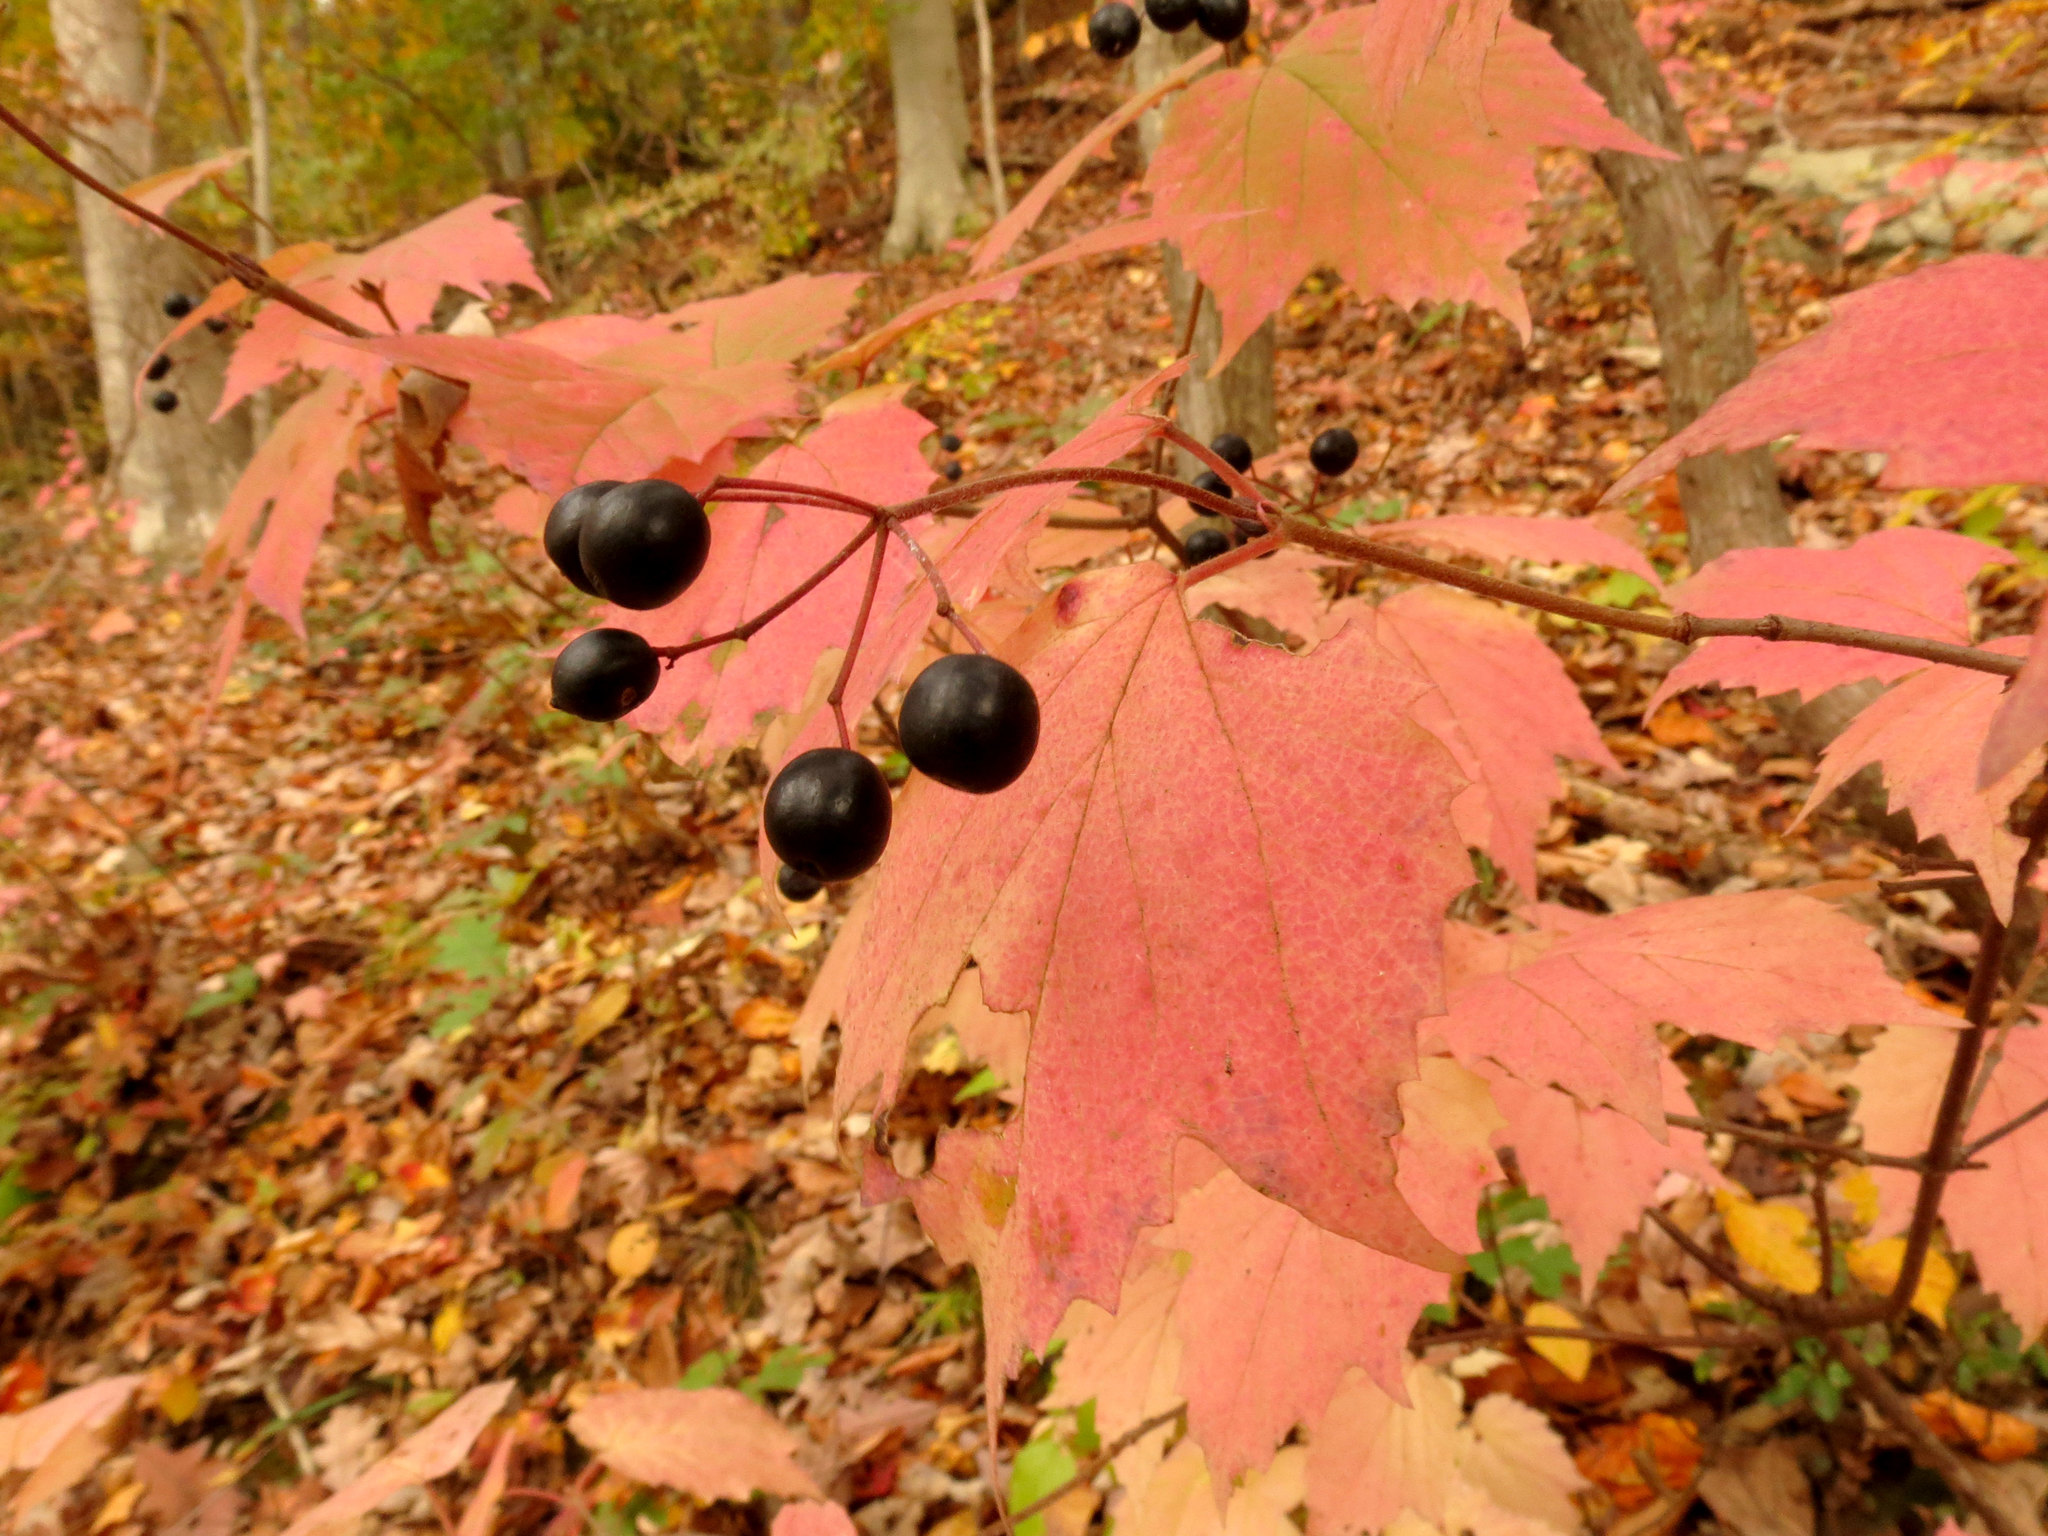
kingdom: Plantae
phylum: Tracheophyta
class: Magnoliopsida
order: Dipsacales
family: Viburnaceae
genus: Viburnum
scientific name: Viburnum acerifolium
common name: Dockmackie
